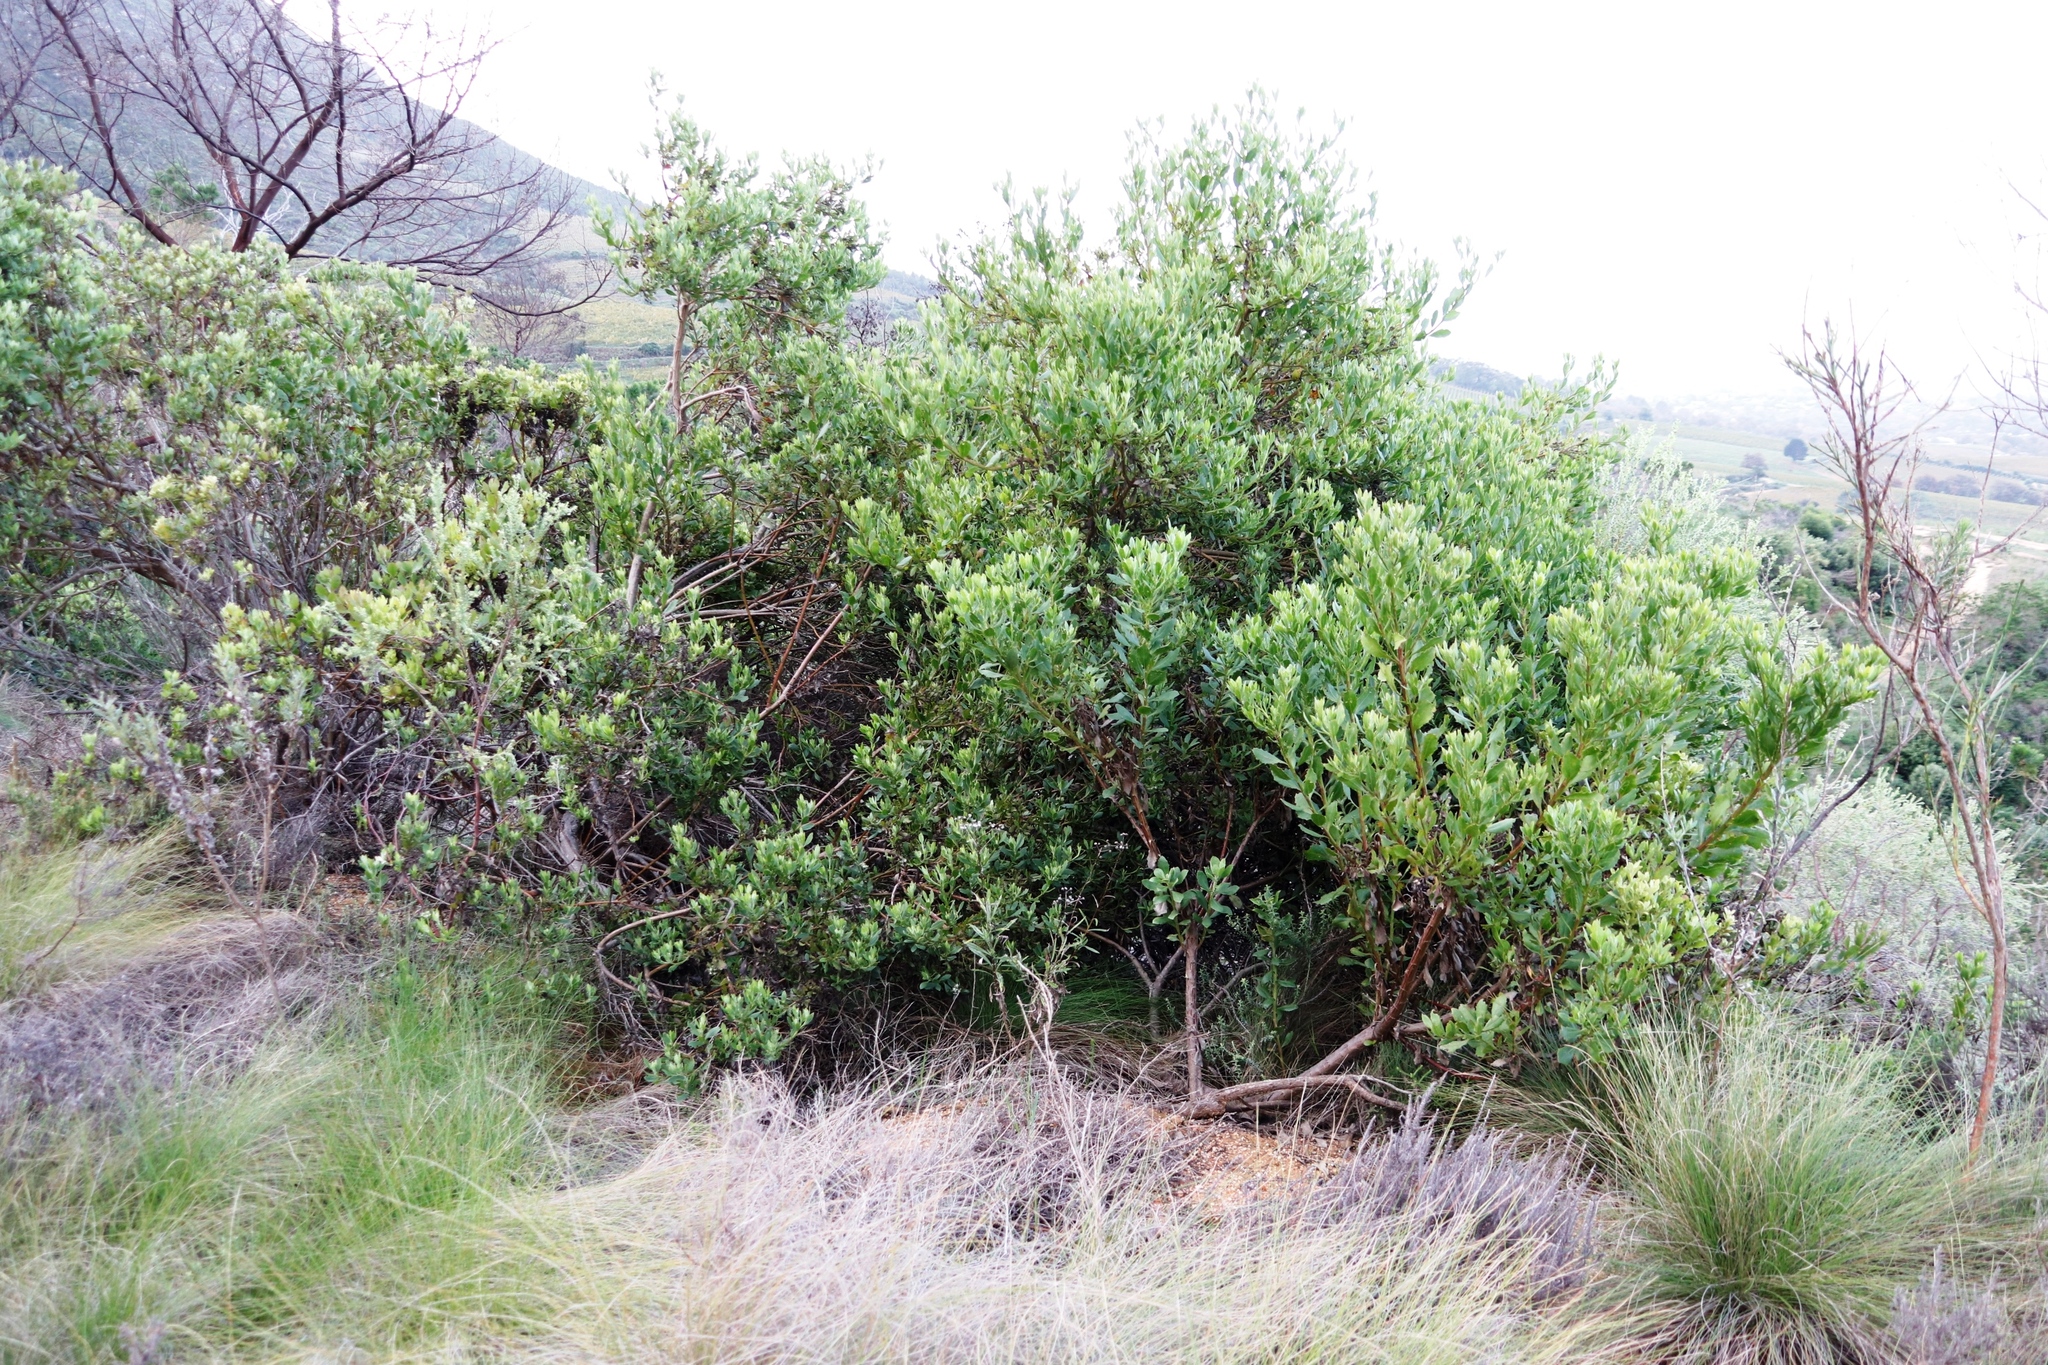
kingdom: Plantae
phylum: Tracheophyta
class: Magnoliopsida
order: Asterales
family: Asteraceae
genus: Osteospermum
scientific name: Osteospermum moniliferum
